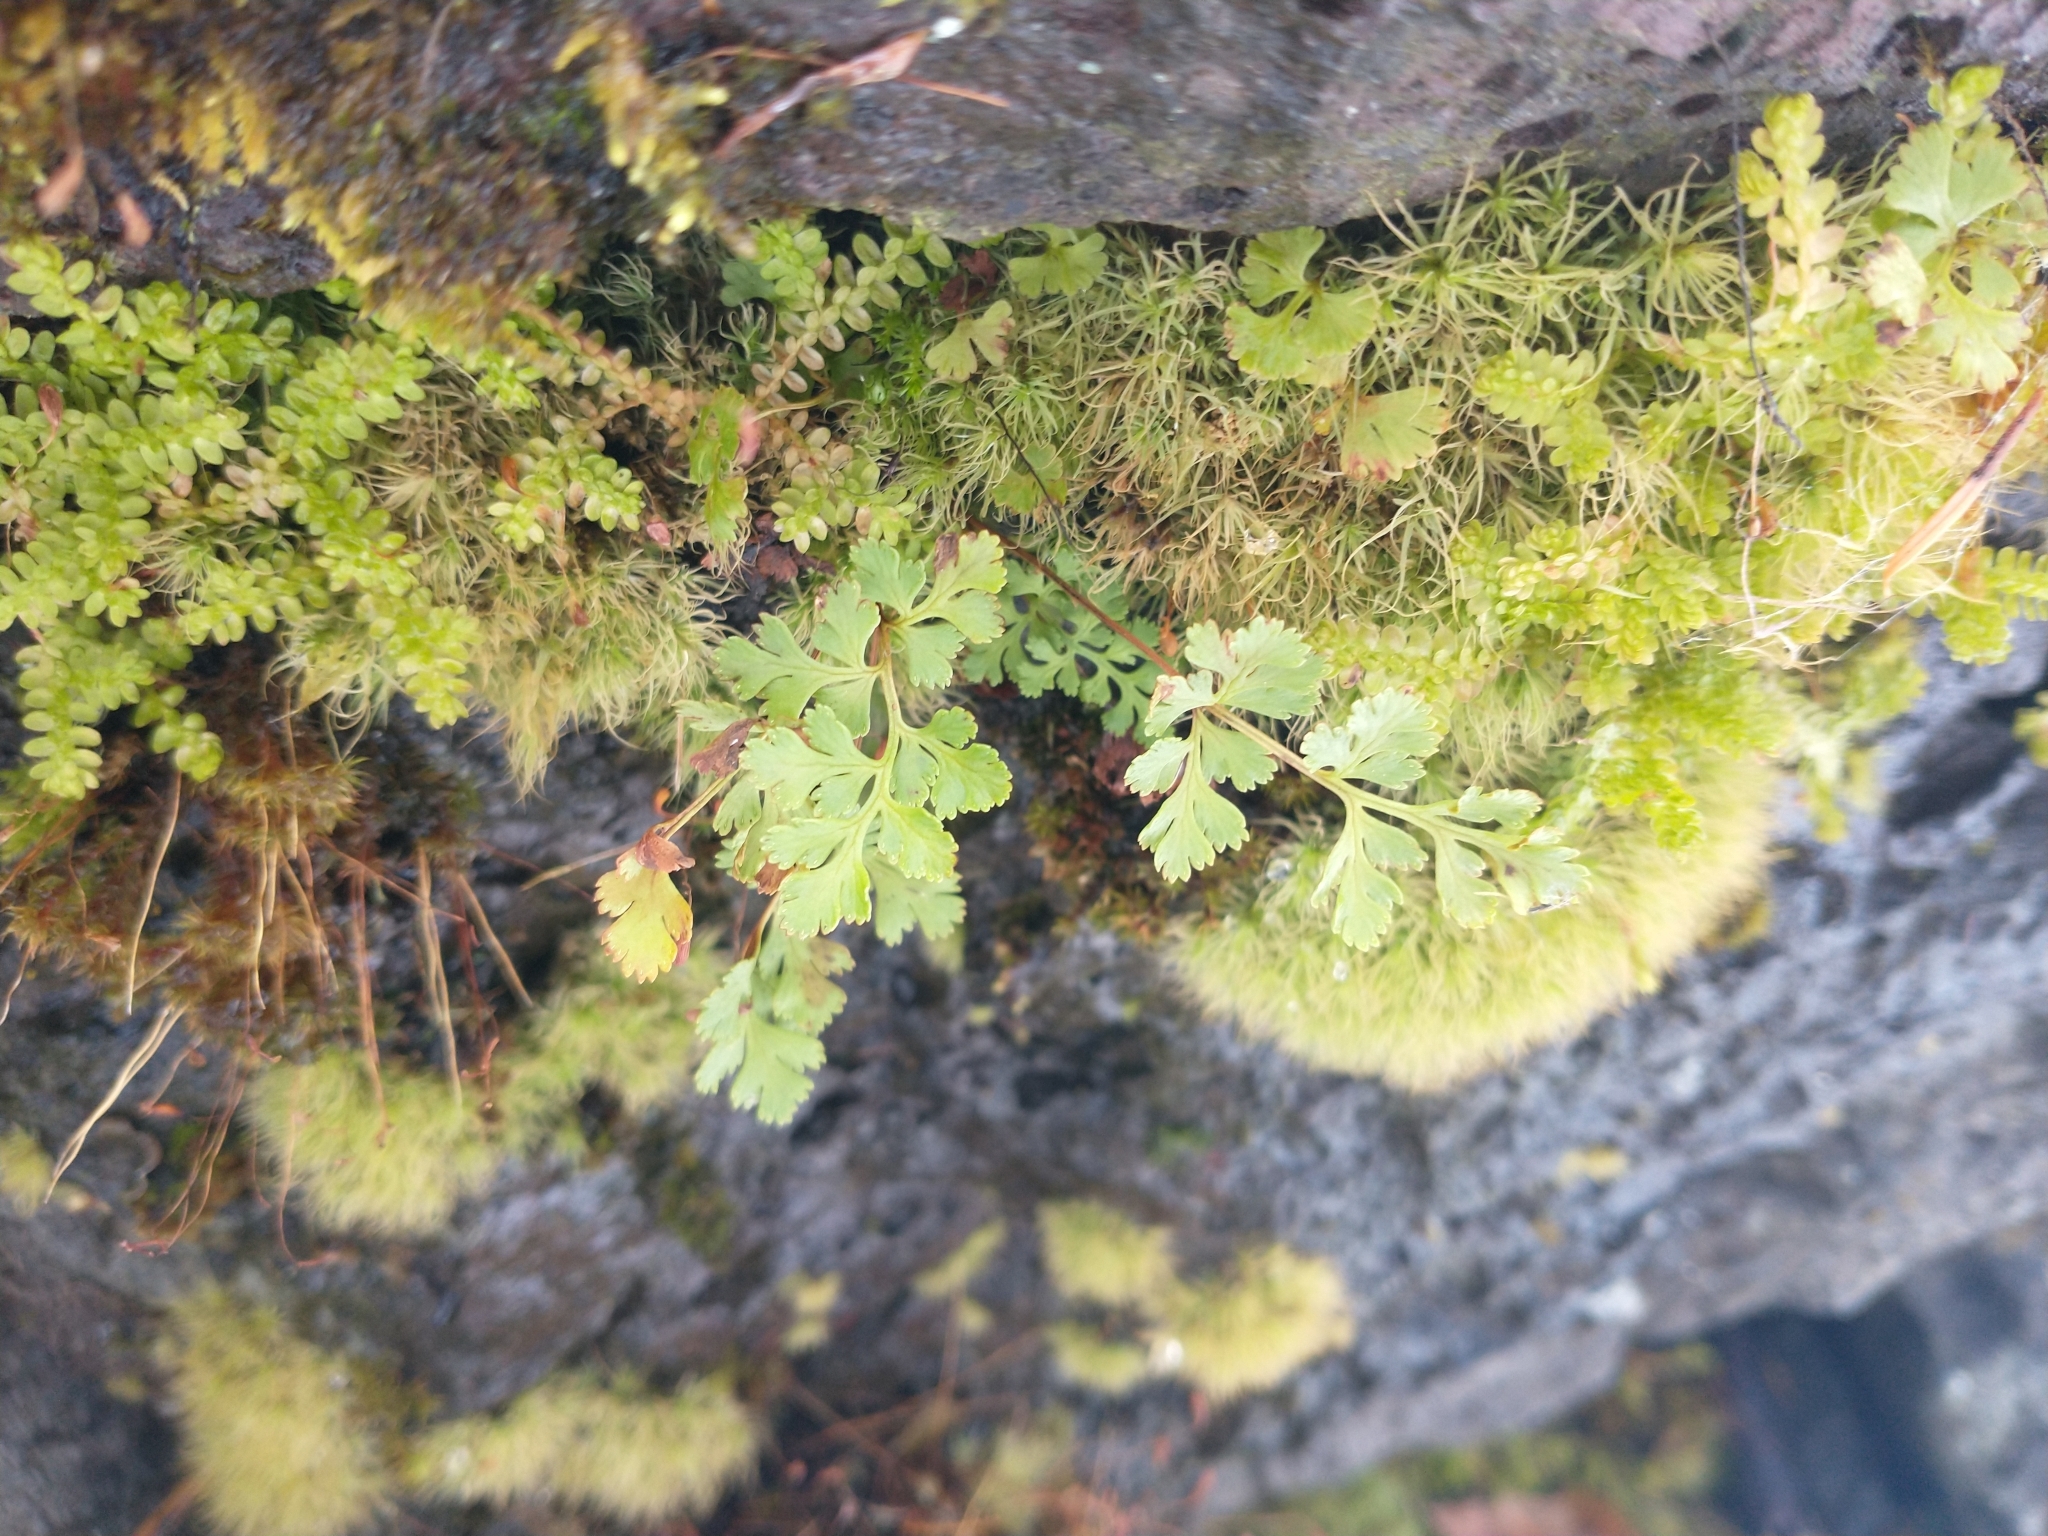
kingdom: Plantae
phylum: Tracheophyta
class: Polypodiopsida
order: Polypodiales
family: Pteridaceae
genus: Cryptogramma
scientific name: Cryptogramma acrostichoides
